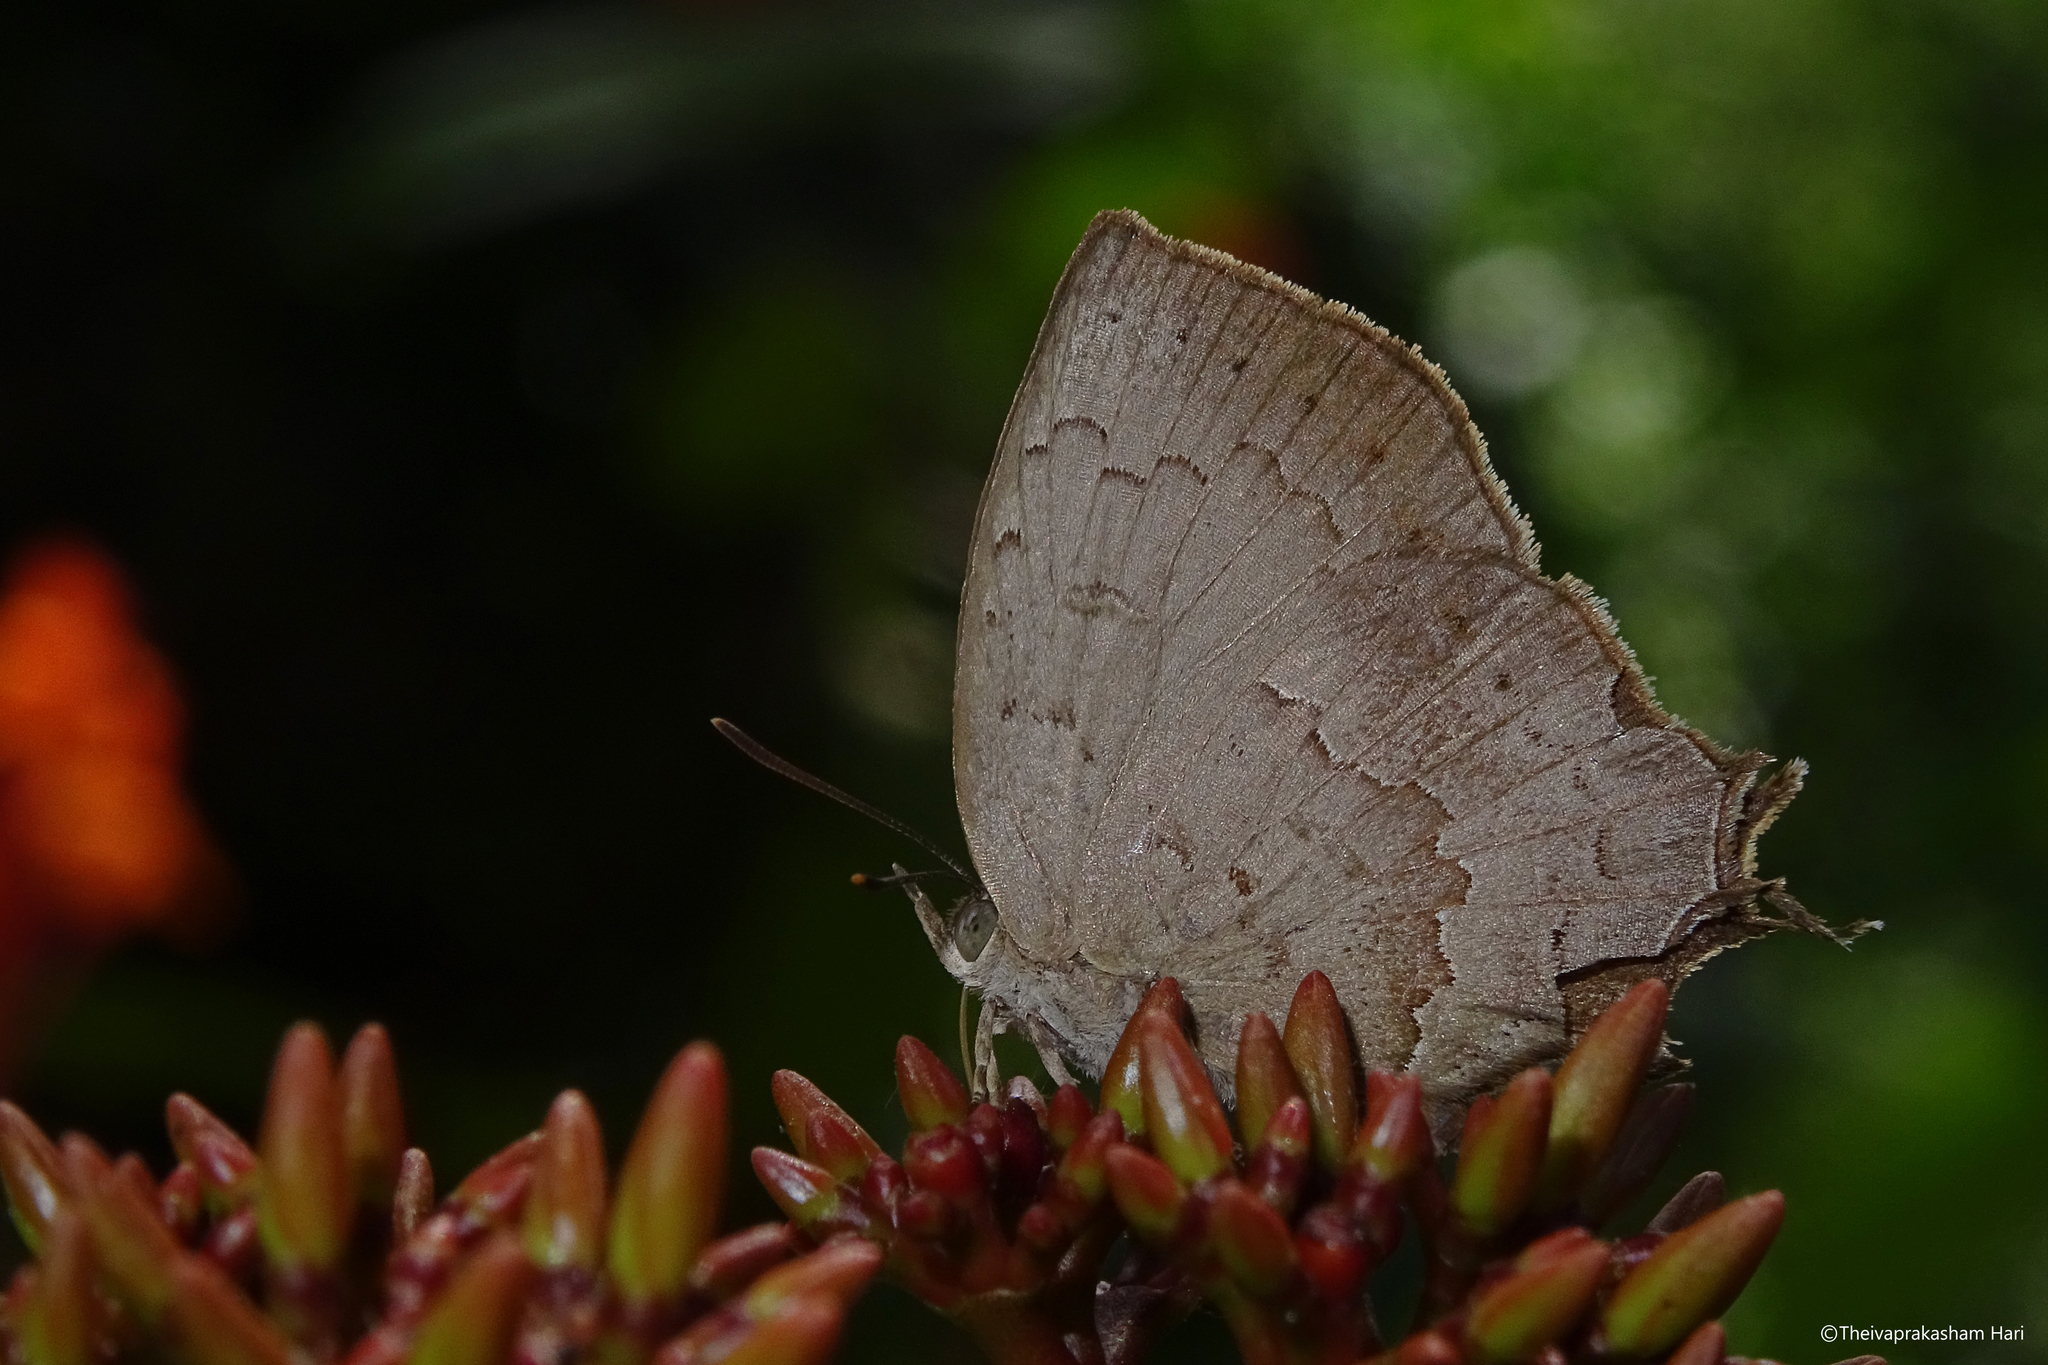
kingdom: Animalia
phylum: Arthropoda
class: Insecta
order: Lepidoptera
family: Lycaenidae
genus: Surendra
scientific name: Surendra quercetorum
